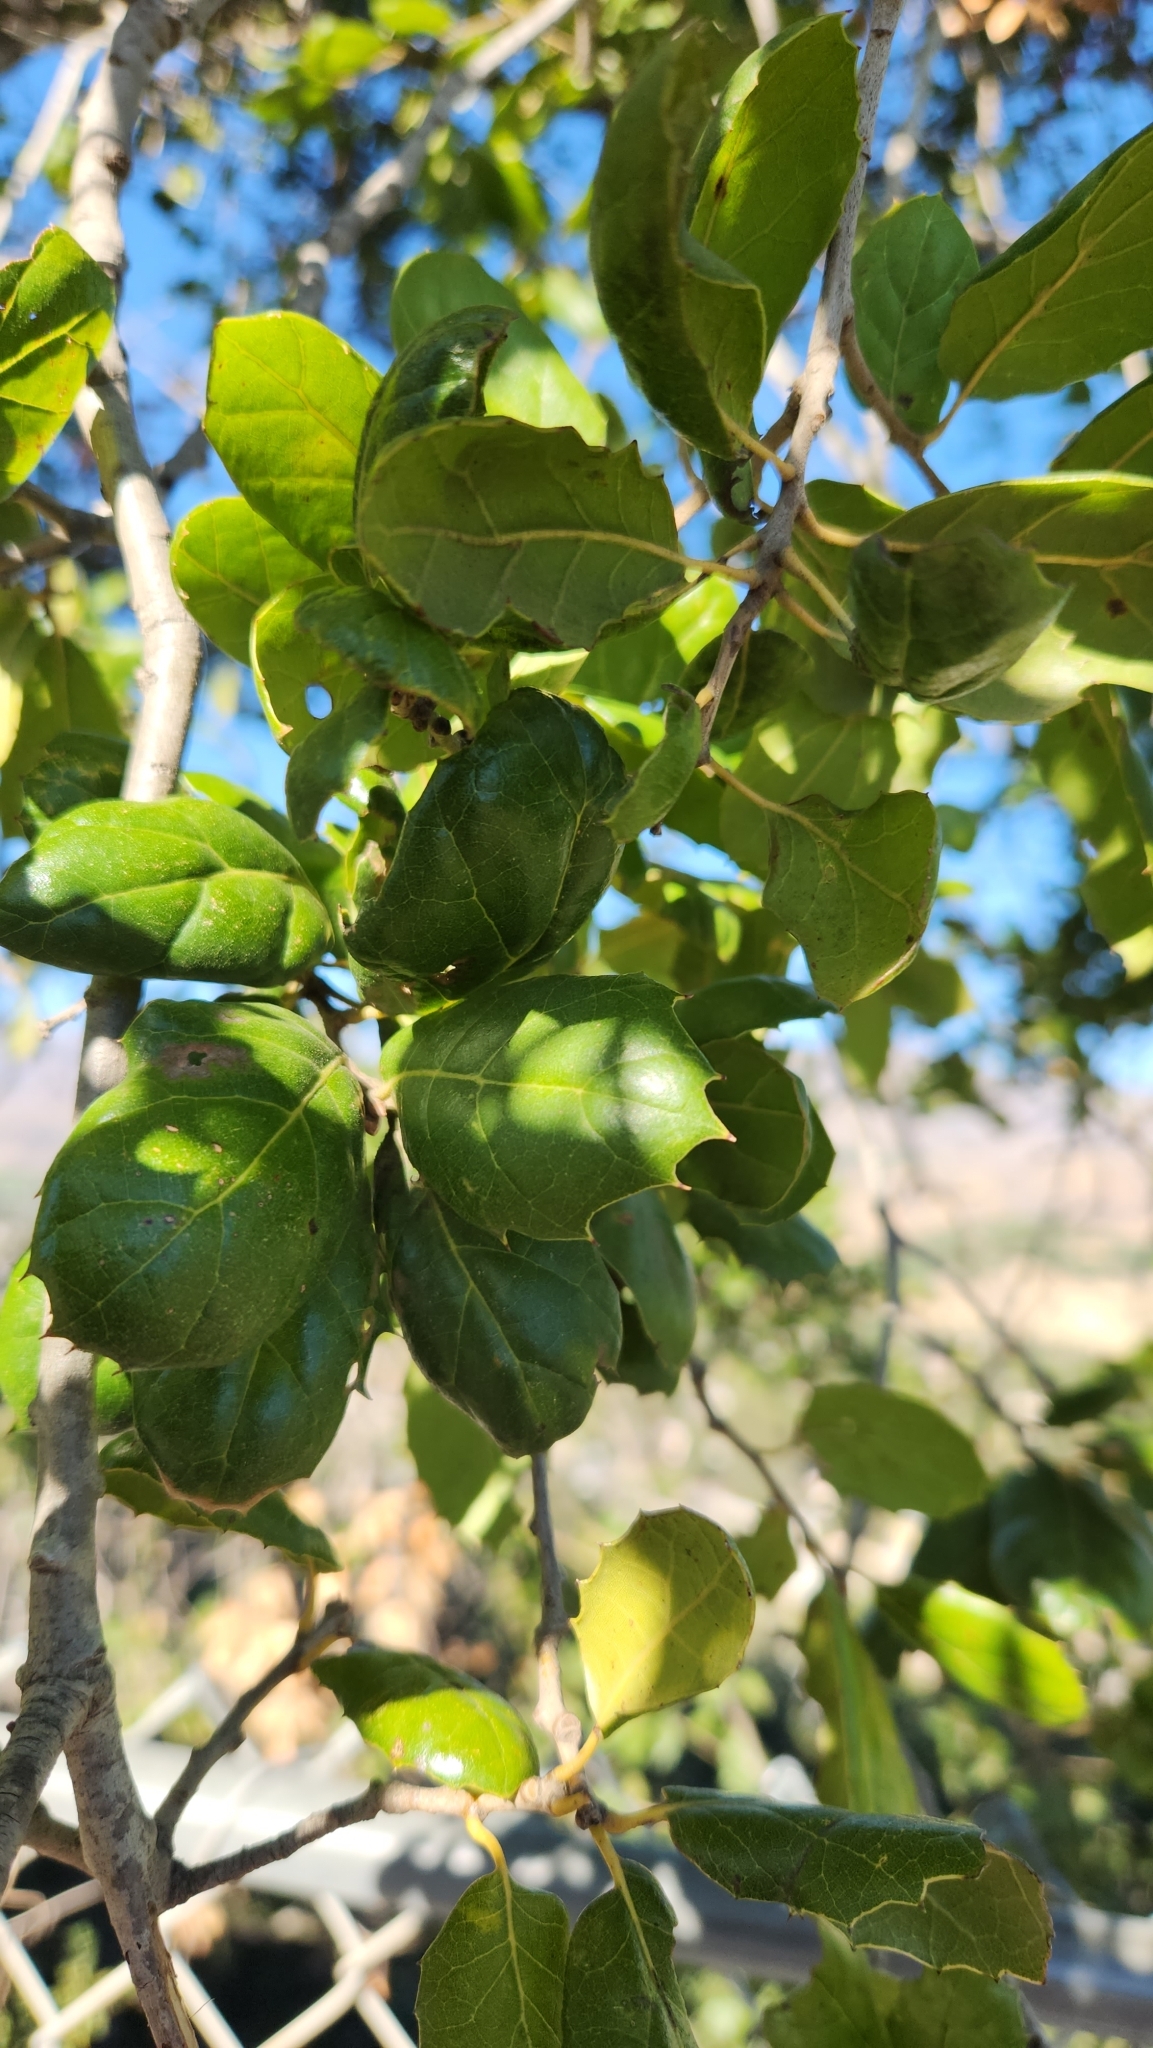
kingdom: Plantae
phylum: Tracheophyta
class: Magnoliopsida
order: Fagales
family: Fagaceae
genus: Quercus
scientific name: Quercus agrifolia
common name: California live oak
